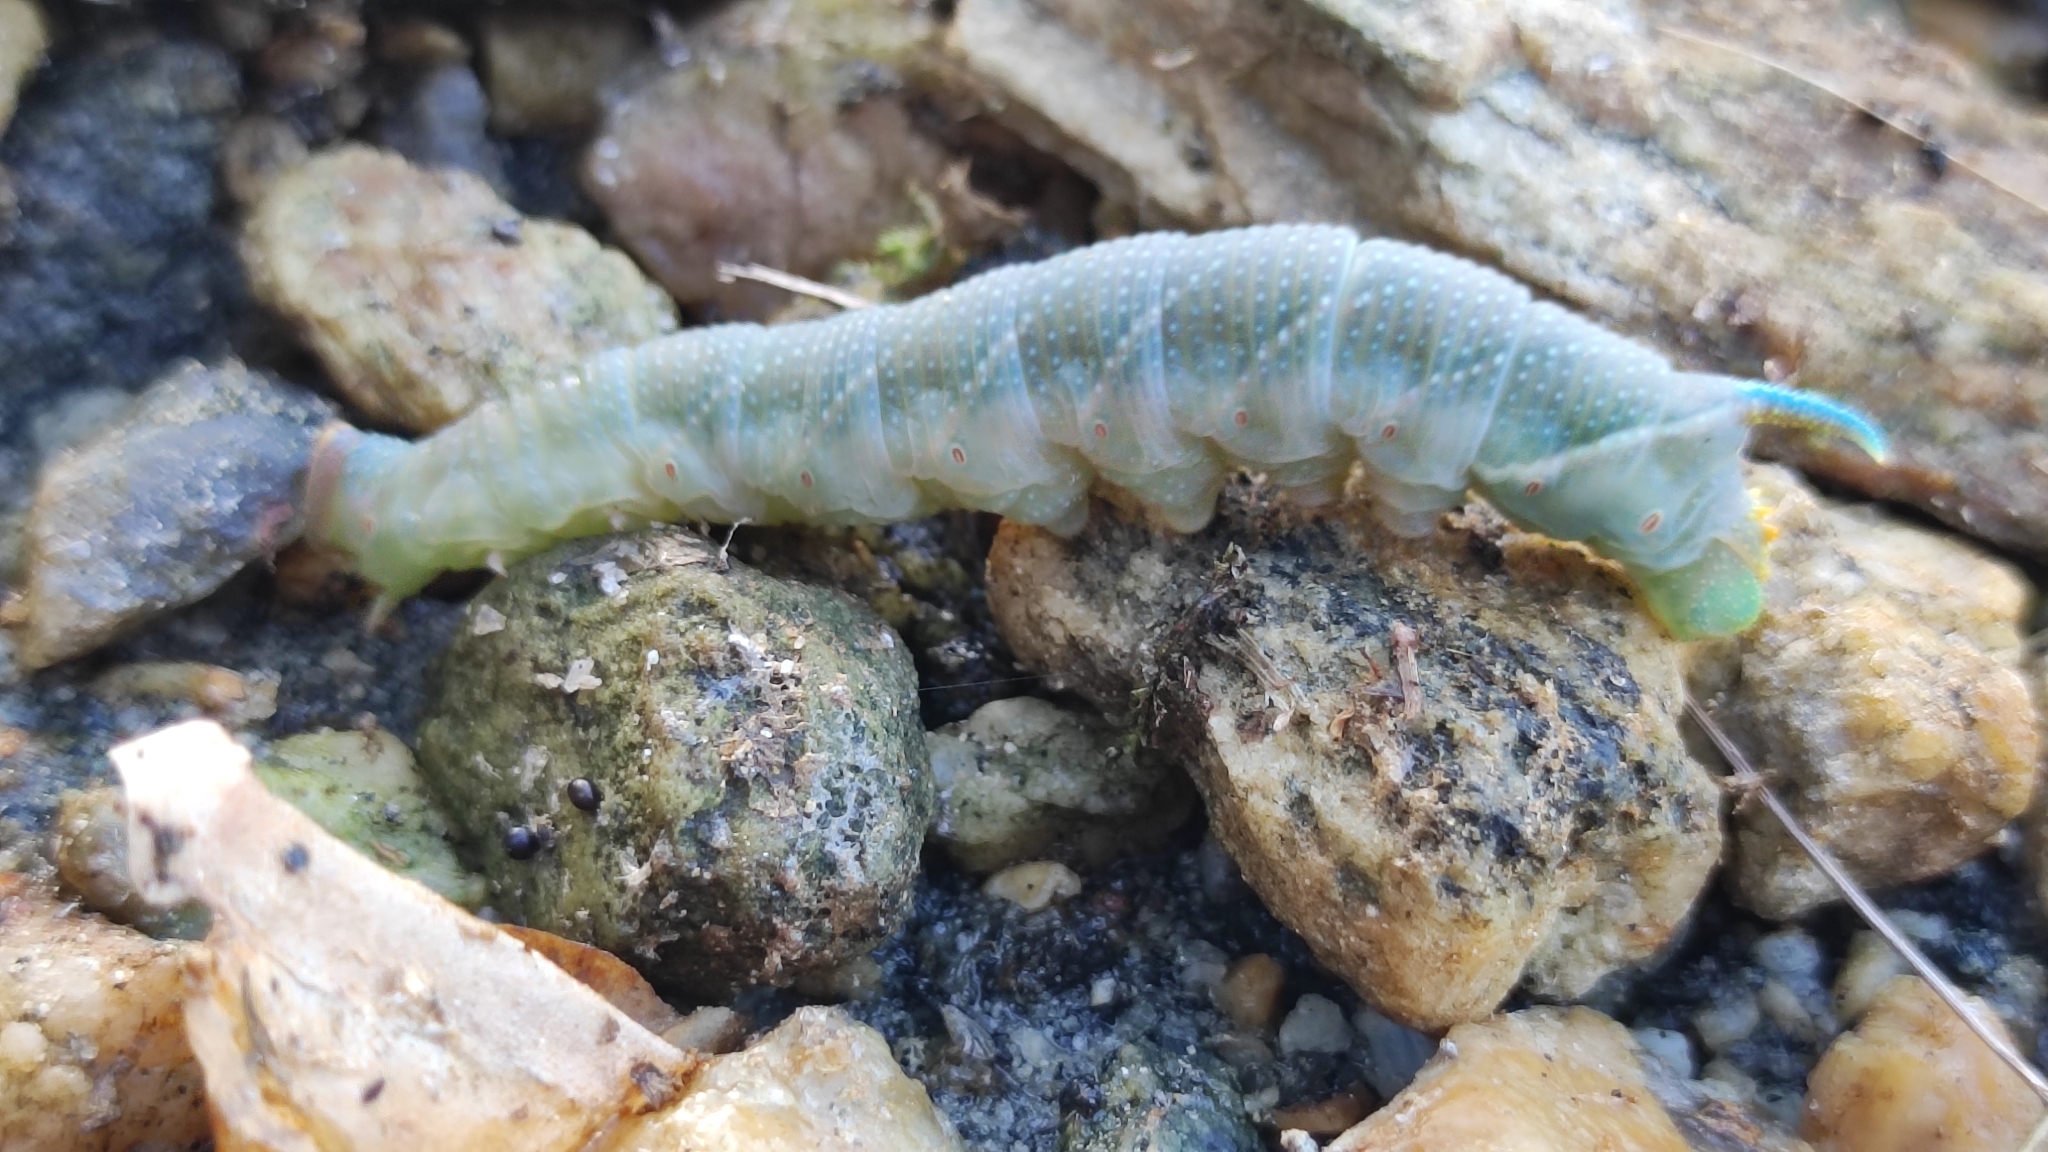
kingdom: Animalia
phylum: Arthropoda
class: Insecta
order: Lepidoptera
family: Sphingidae
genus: Mimas
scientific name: Mimas tiliae
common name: Lime hawk-moth
